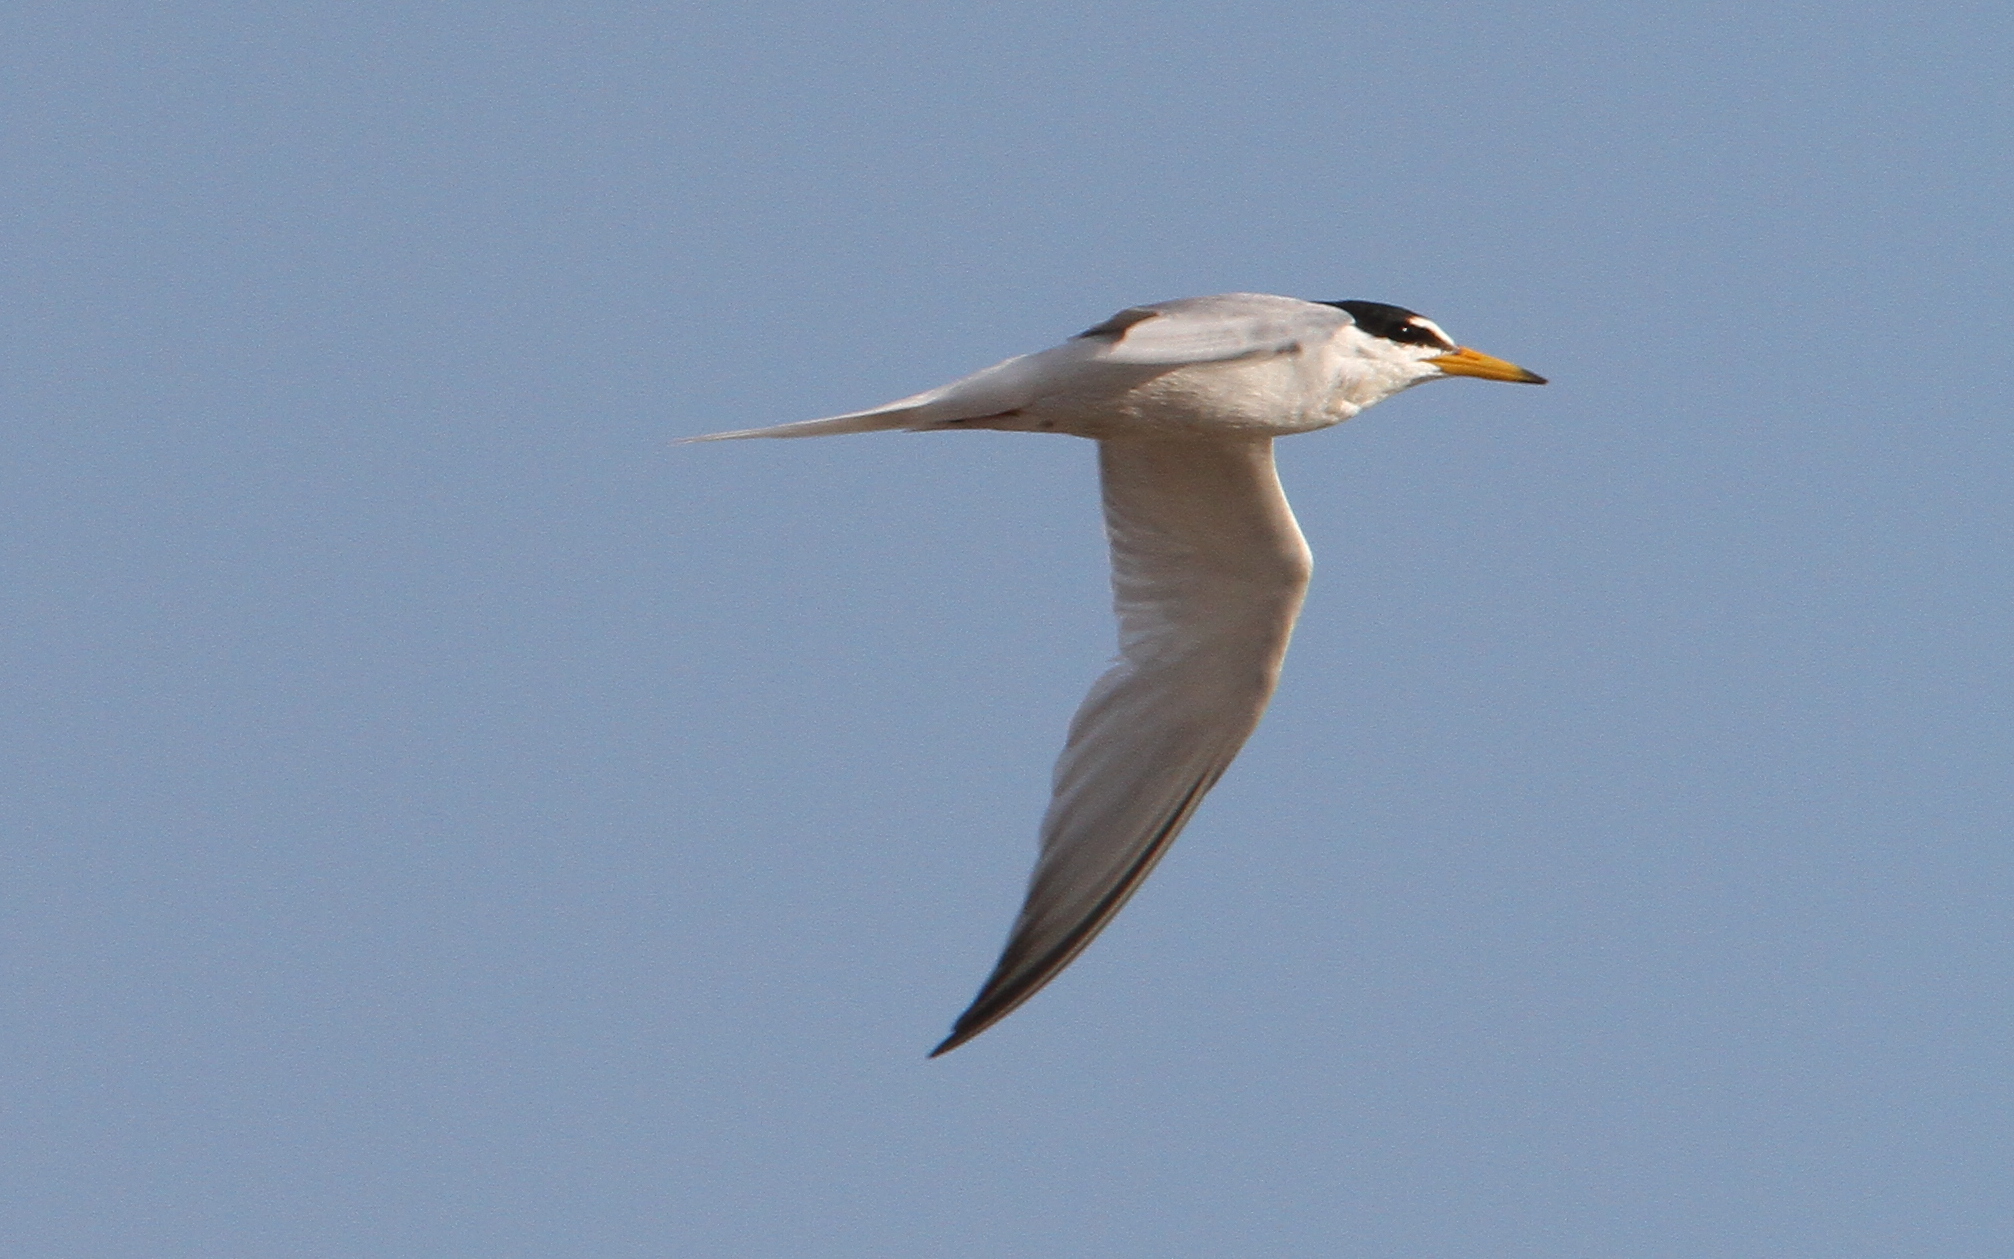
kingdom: Animalia
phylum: Chordata
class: Aves
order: Charadriiformes
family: Laridae
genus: Sternula
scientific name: Sternula albifrons
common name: Little tern
